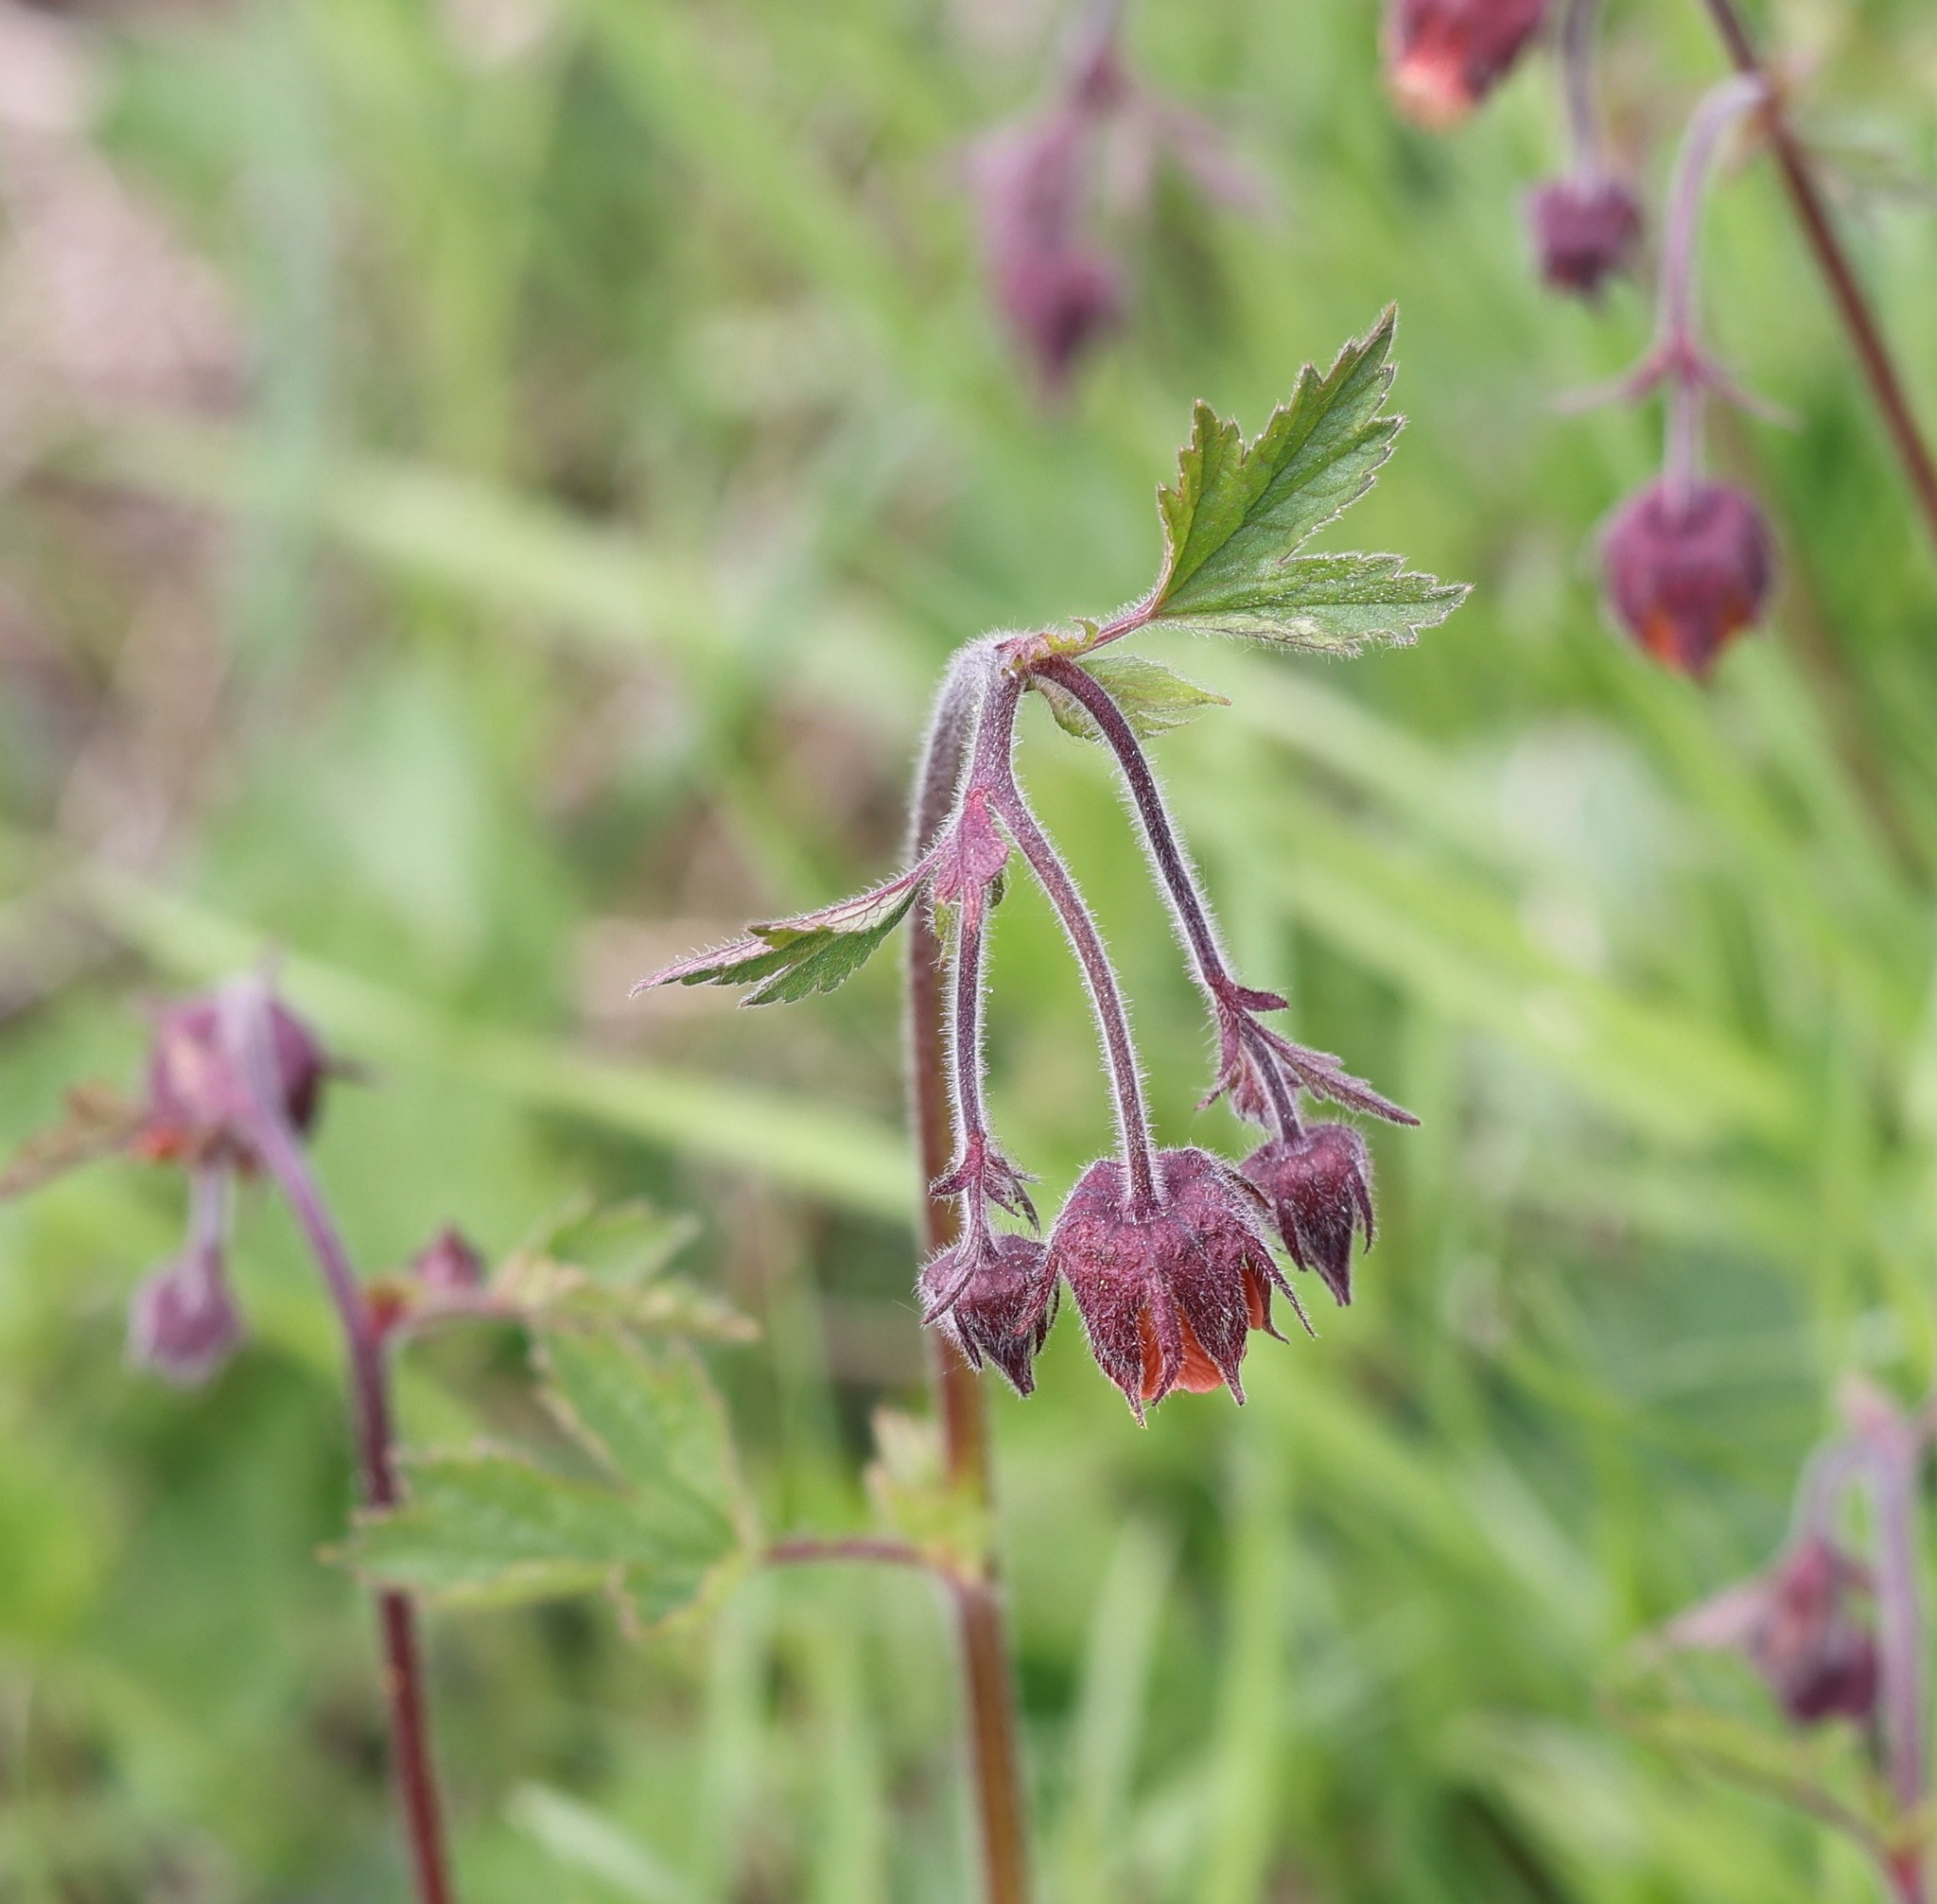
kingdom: Plantae
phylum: Tracheophyta
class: Magnoliopsida
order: Rosales
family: Rosaceae
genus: Geum
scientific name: Geum rivale
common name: Water avens
